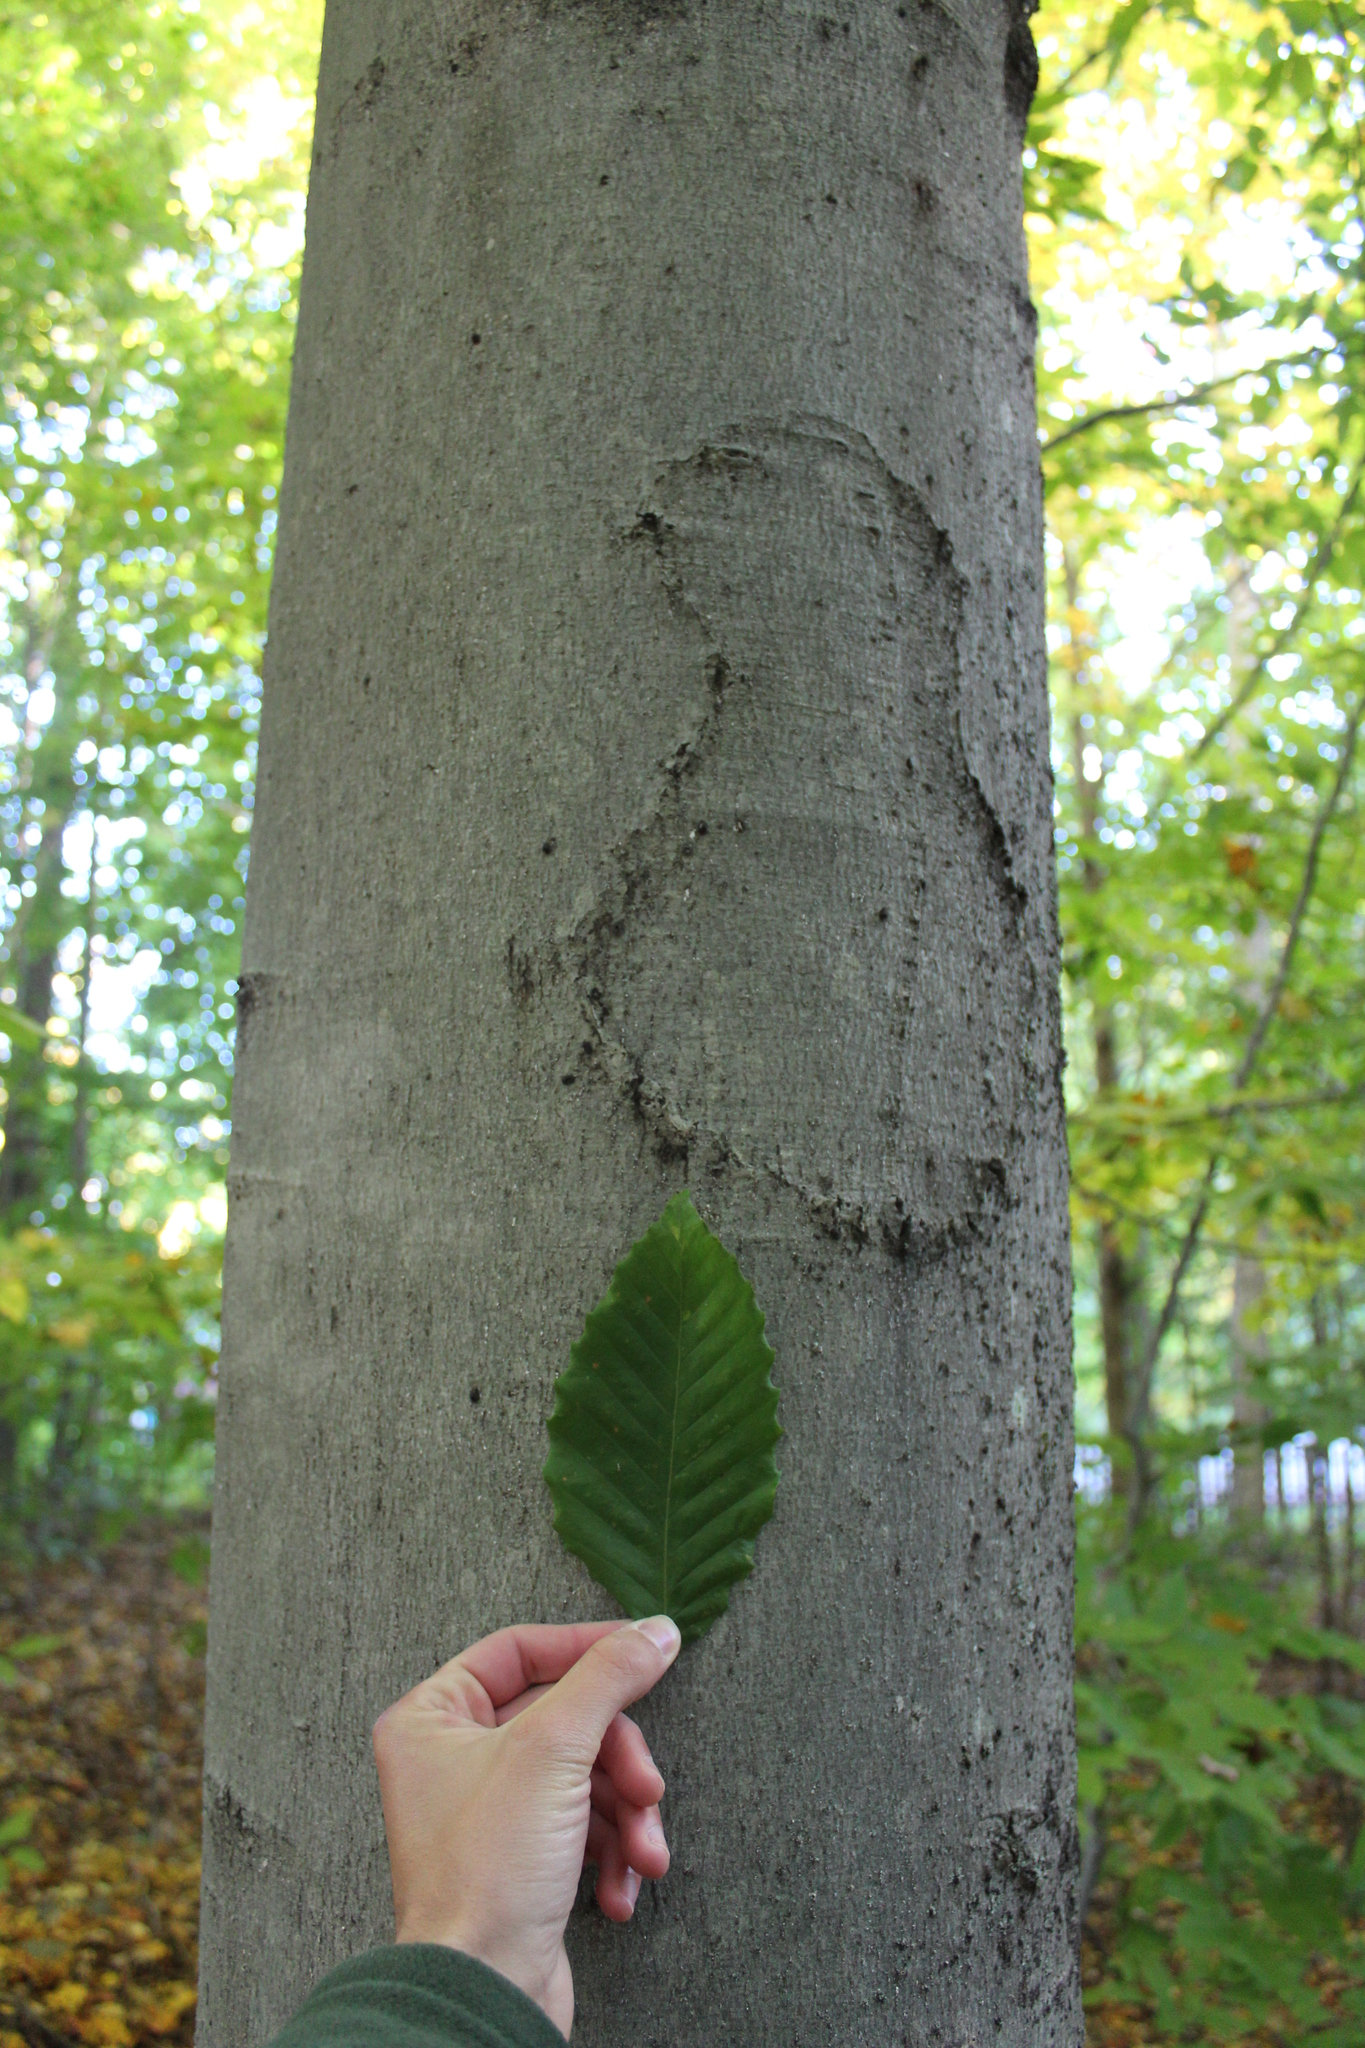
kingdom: Plantae
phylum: Tracheophyta
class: Magnoliopsida
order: Fagales
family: Fagaceae
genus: Fagus
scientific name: Fagus grandifolia
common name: American beech
